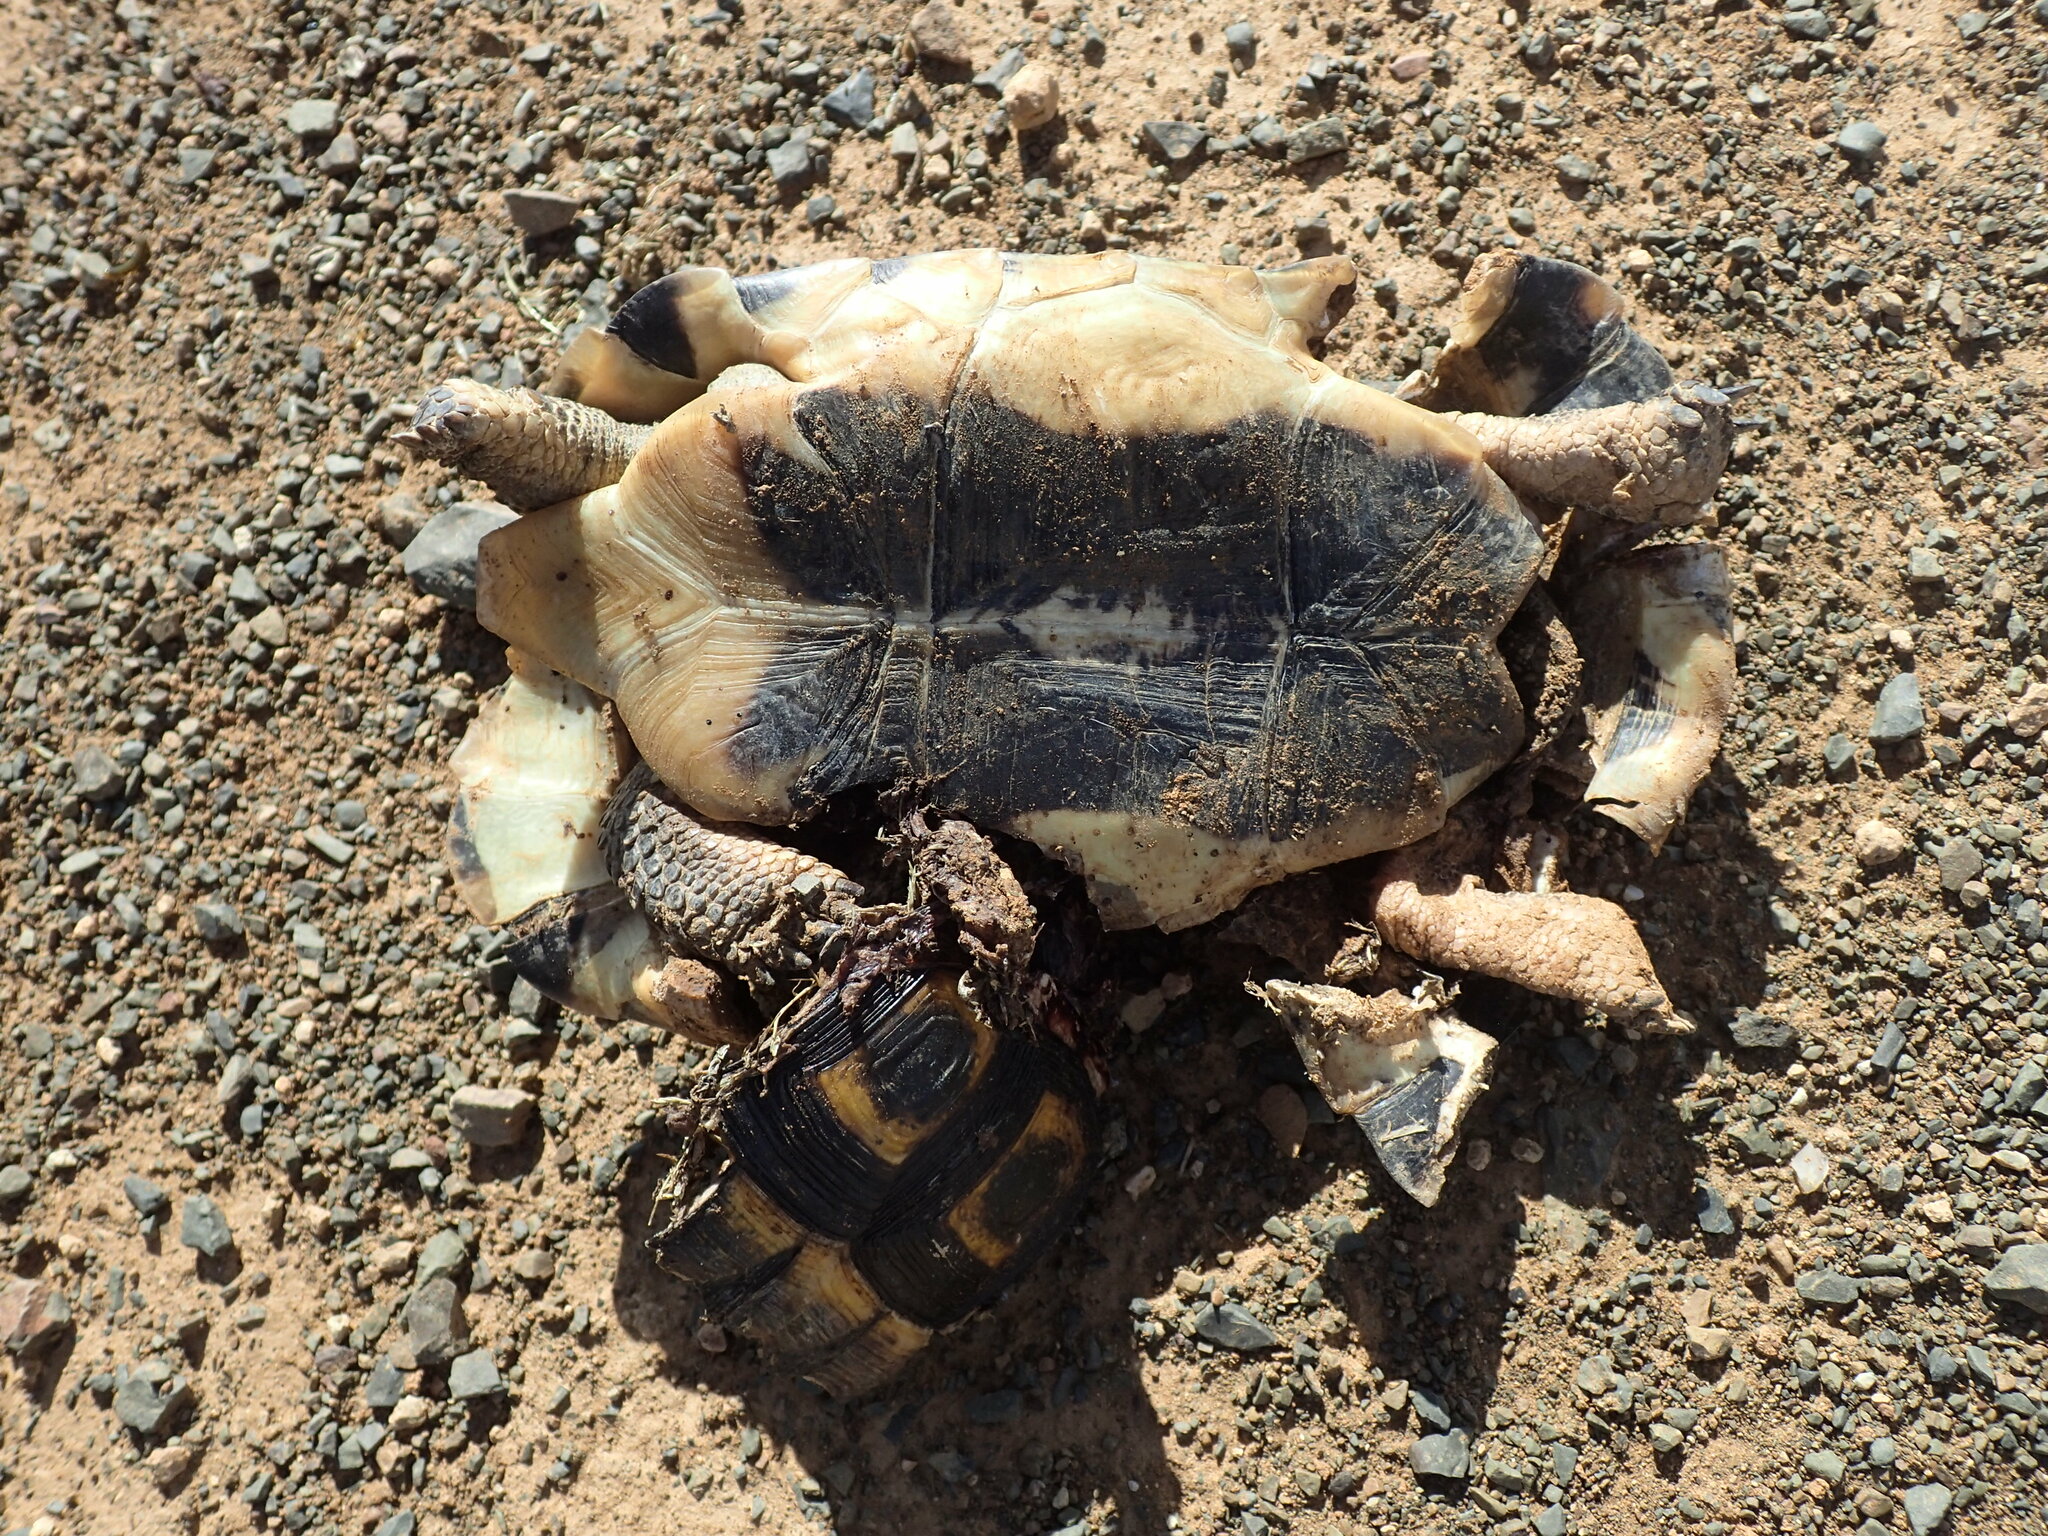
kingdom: Animalia
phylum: Chordata
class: Testudines
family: Testudinidae
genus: Chersina
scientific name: Chersina angulata
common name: South african bowsprit tortoise
